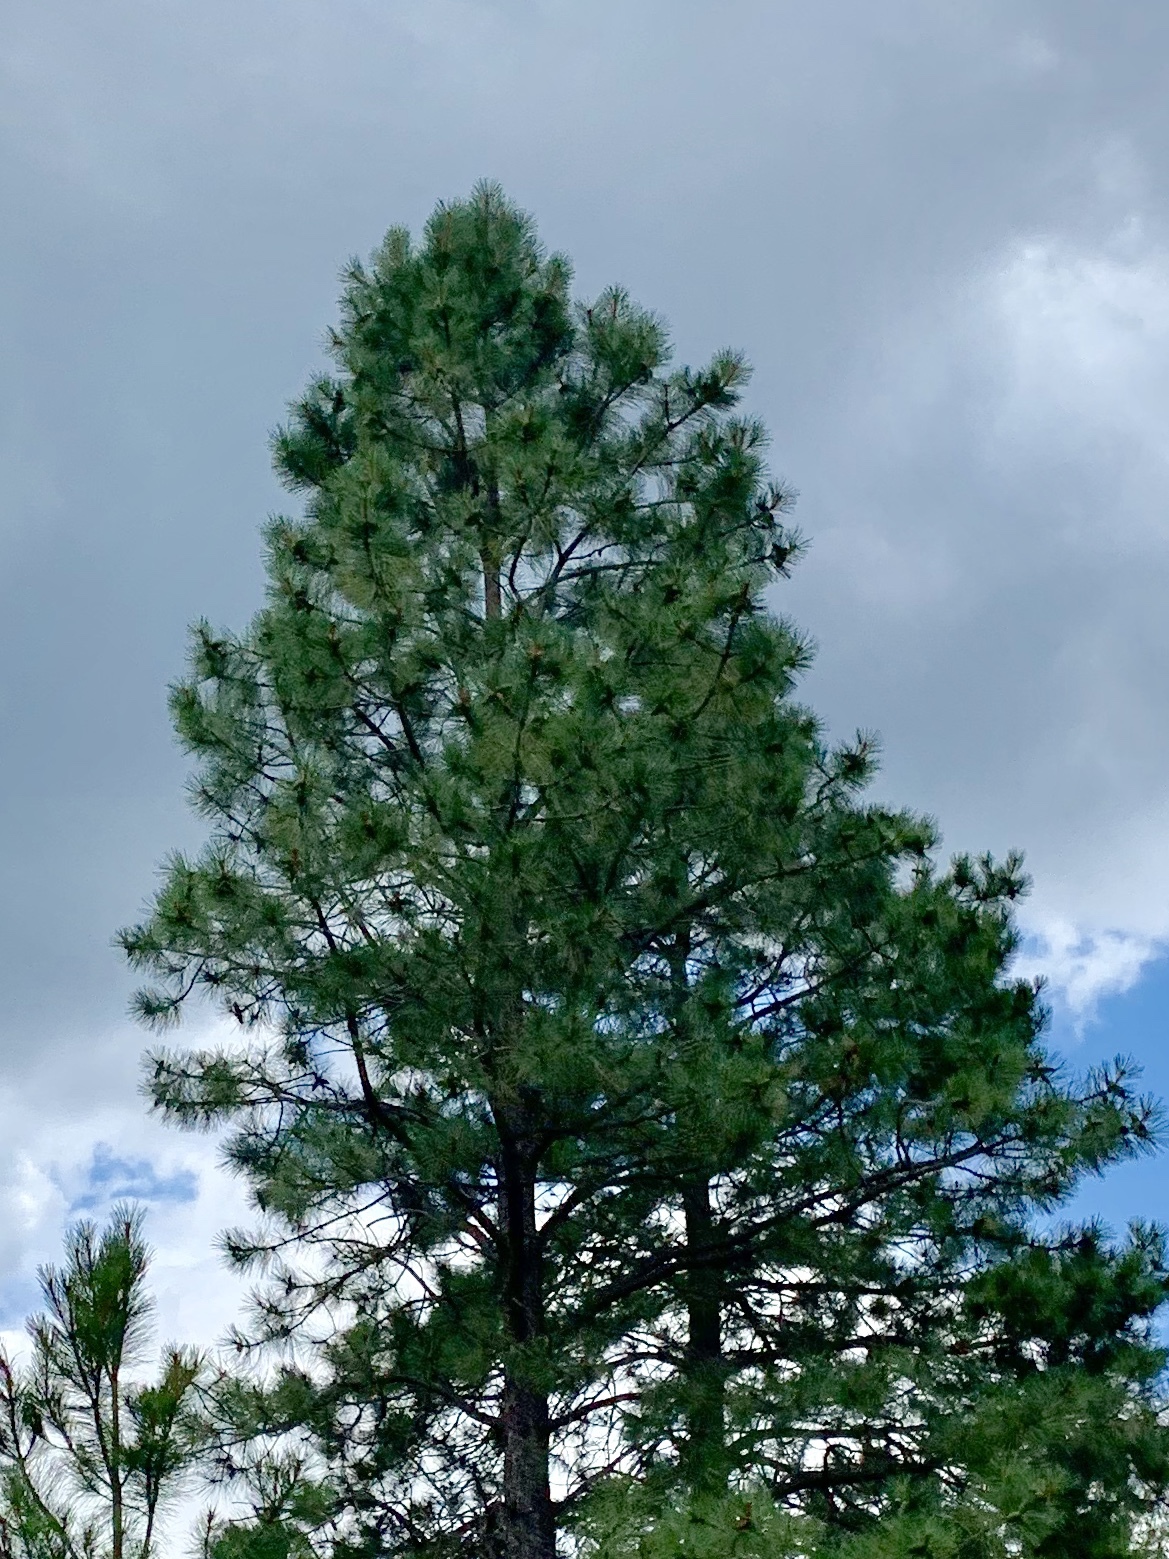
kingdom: Plantae
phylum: Tracheophyta
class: Pinopsida
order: Pinales
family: Pinaceae
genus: Pinus
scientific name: Pinus ponderosa
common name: Western yellow-pine
